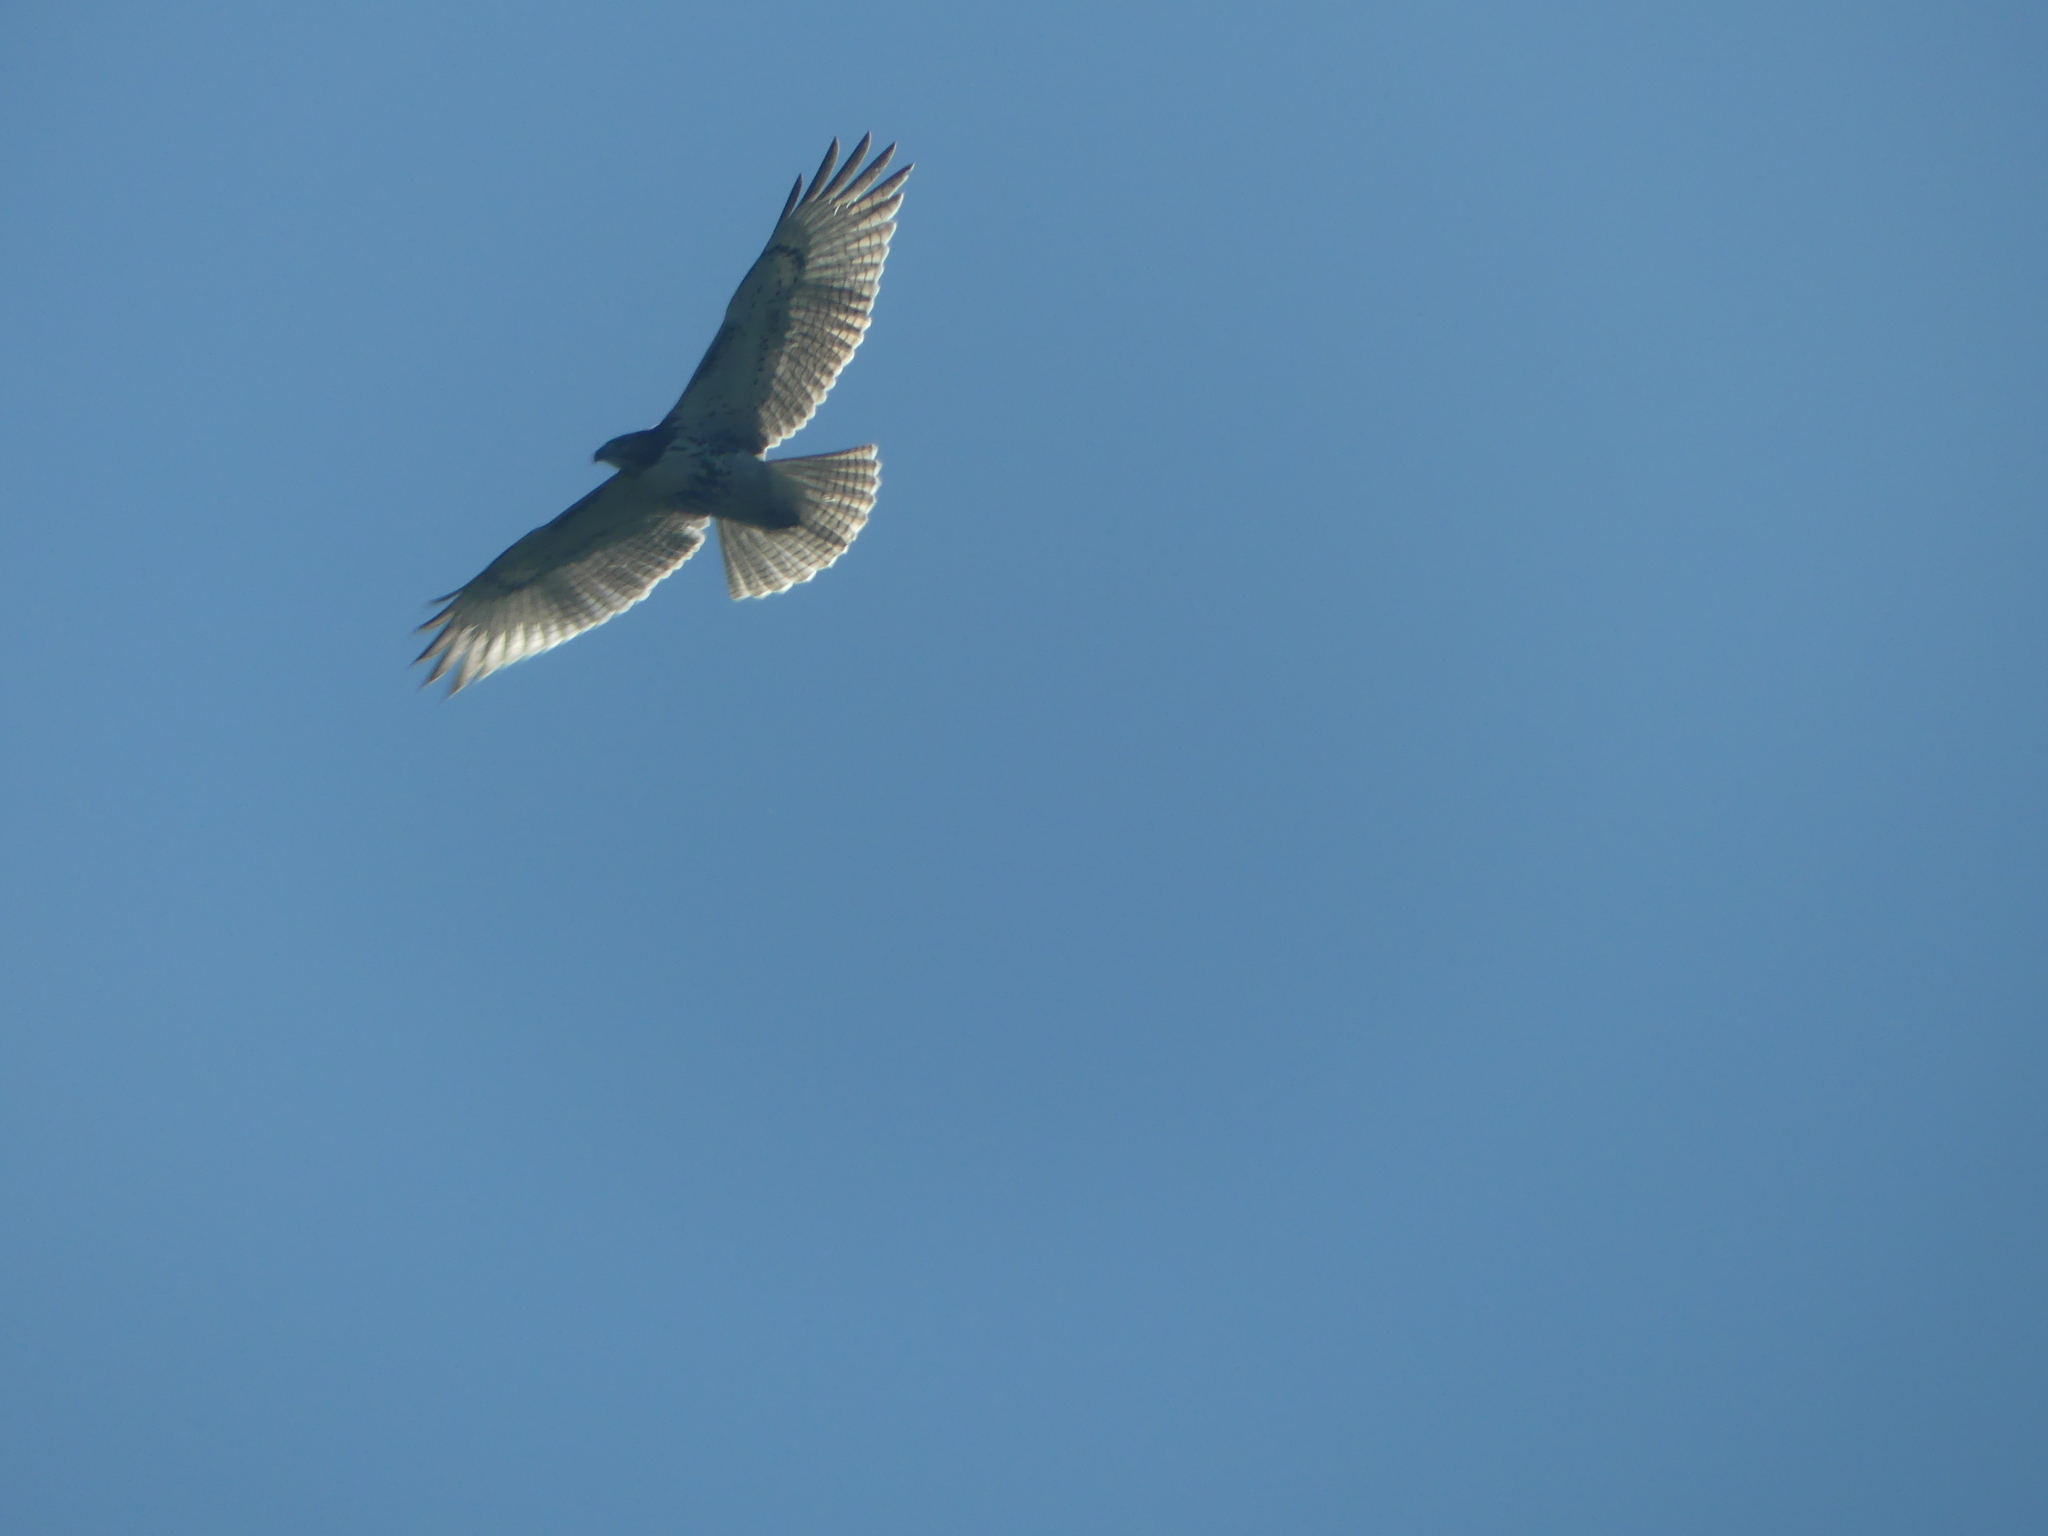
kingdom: Animalia
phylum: Chordata
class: Aves
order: Accipitriformes
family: Accipitridae
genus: Buteo
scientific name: Buteo jamaicensis
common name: Red-tailed hawk
